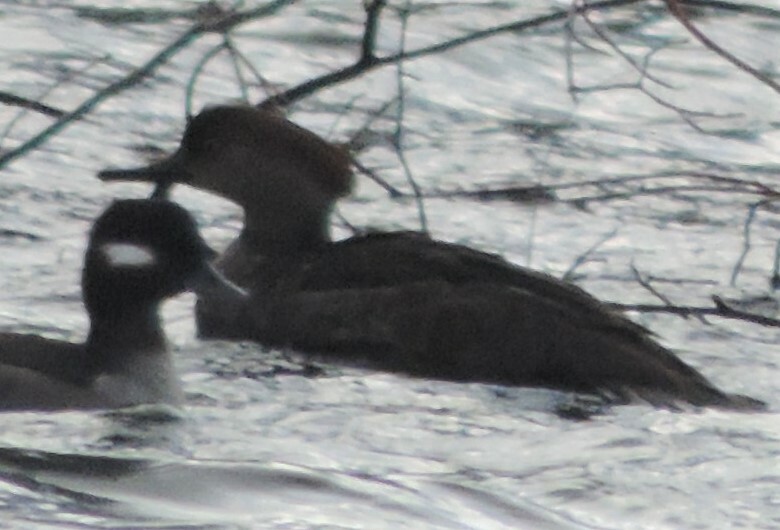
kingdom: Animalia
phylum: Chordata
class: Aves
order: Anseriformes
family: Anatidae
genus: Lophodytes
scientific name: Lophodytes cucullatus
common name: Hooded merganser
